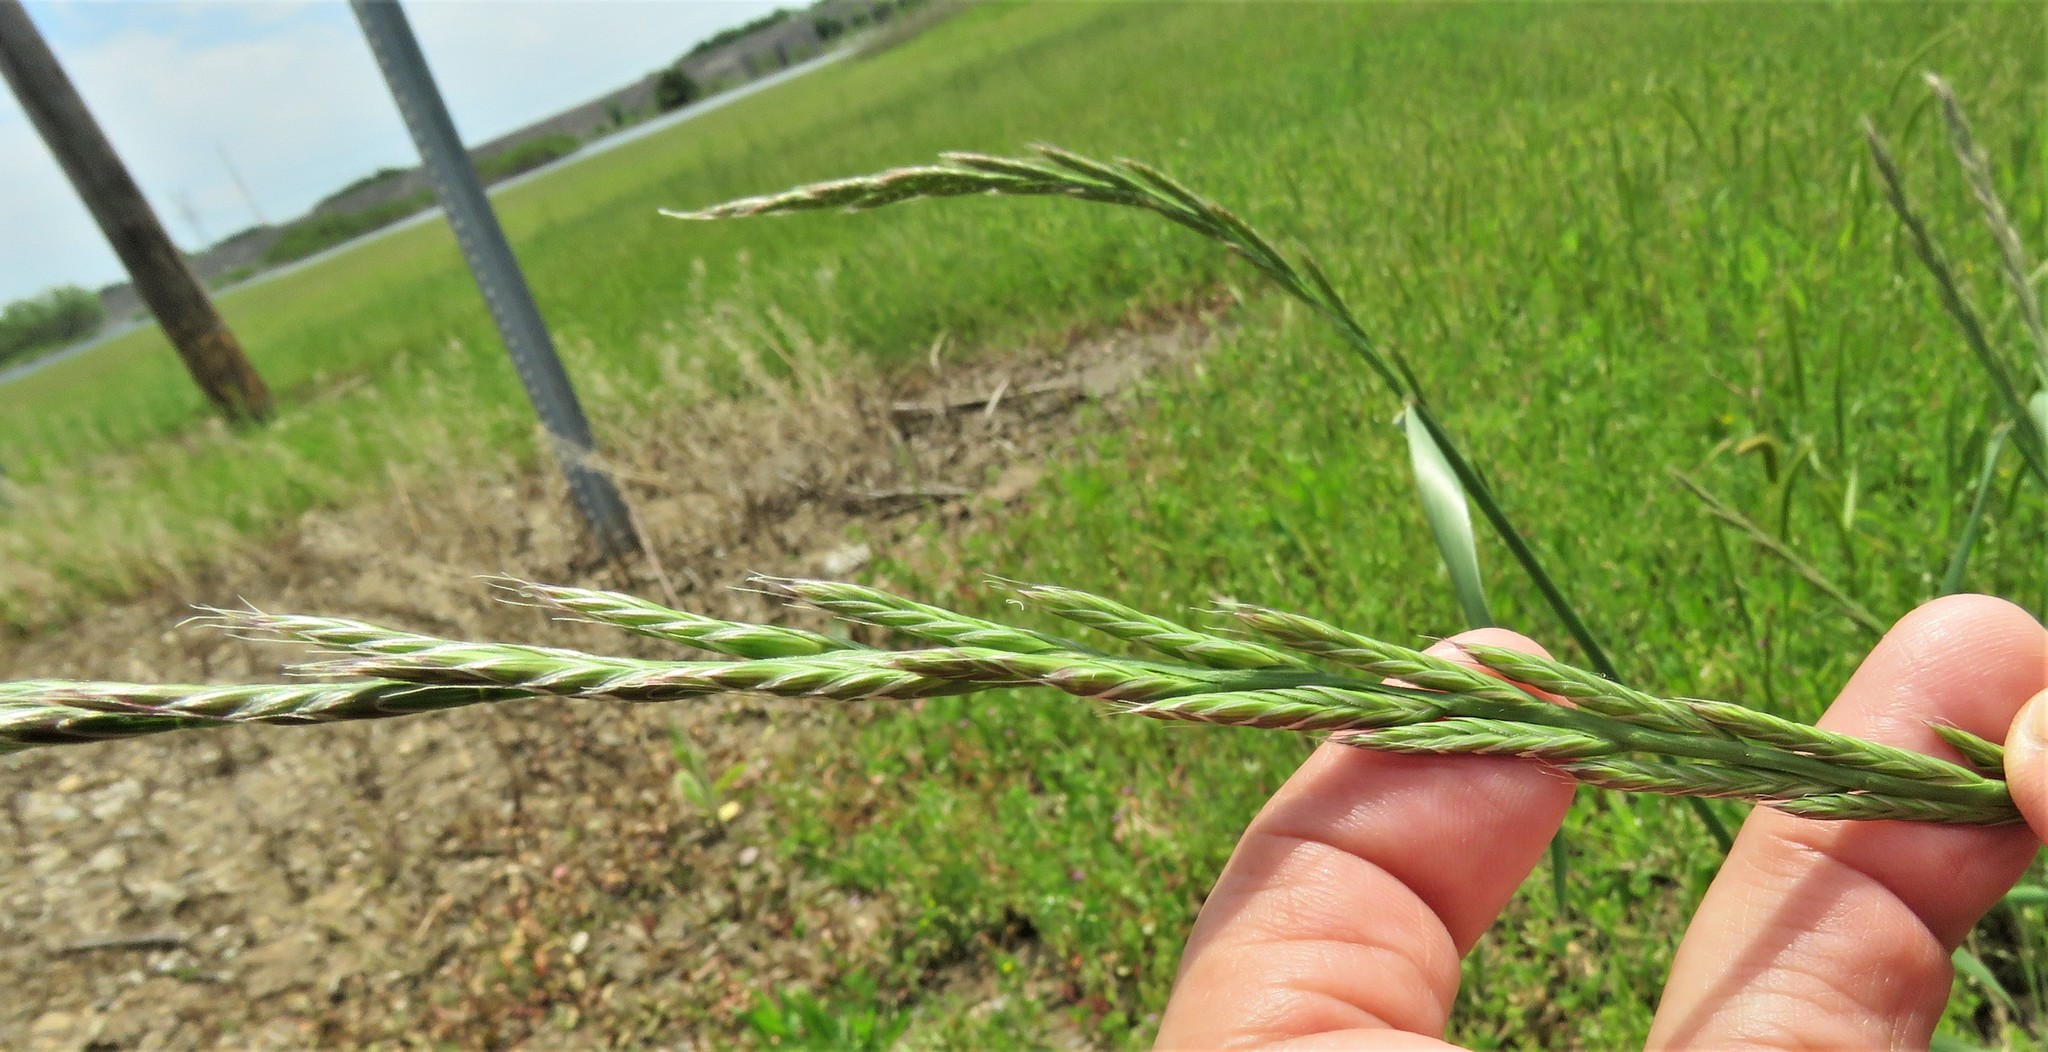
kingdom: Plantae
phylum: Tracheophyta
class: Liliopsida
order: Poales
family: Poaceae
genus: Lolium
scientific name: Lolium multiflorum
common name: Annual ryegrass
